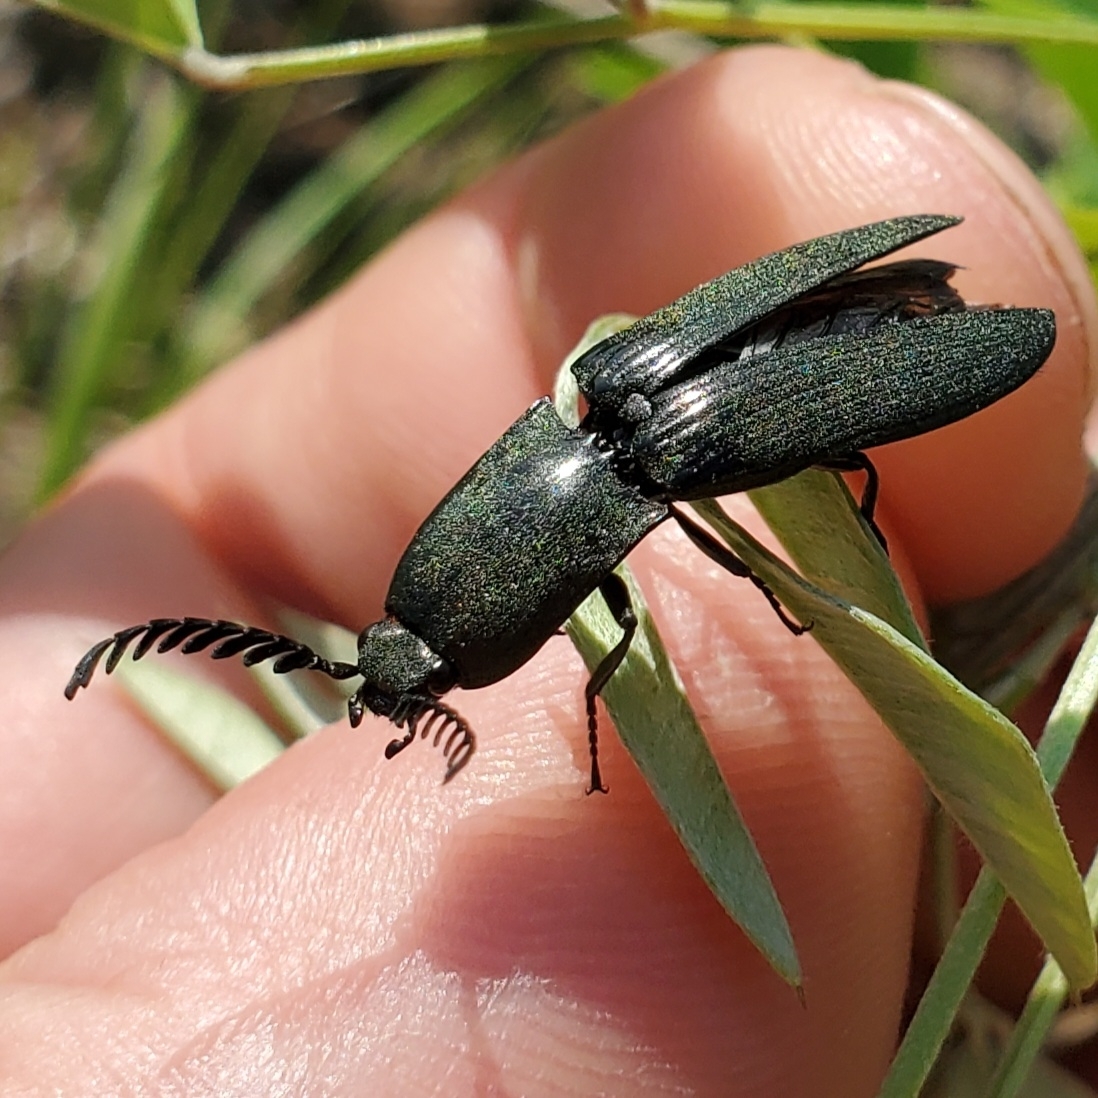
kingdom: Animalia
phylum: Arthropoda
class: Insecta
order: Coleoptera
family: Elateridae
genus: Chalcolepidius
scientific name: Chalcolepidius
